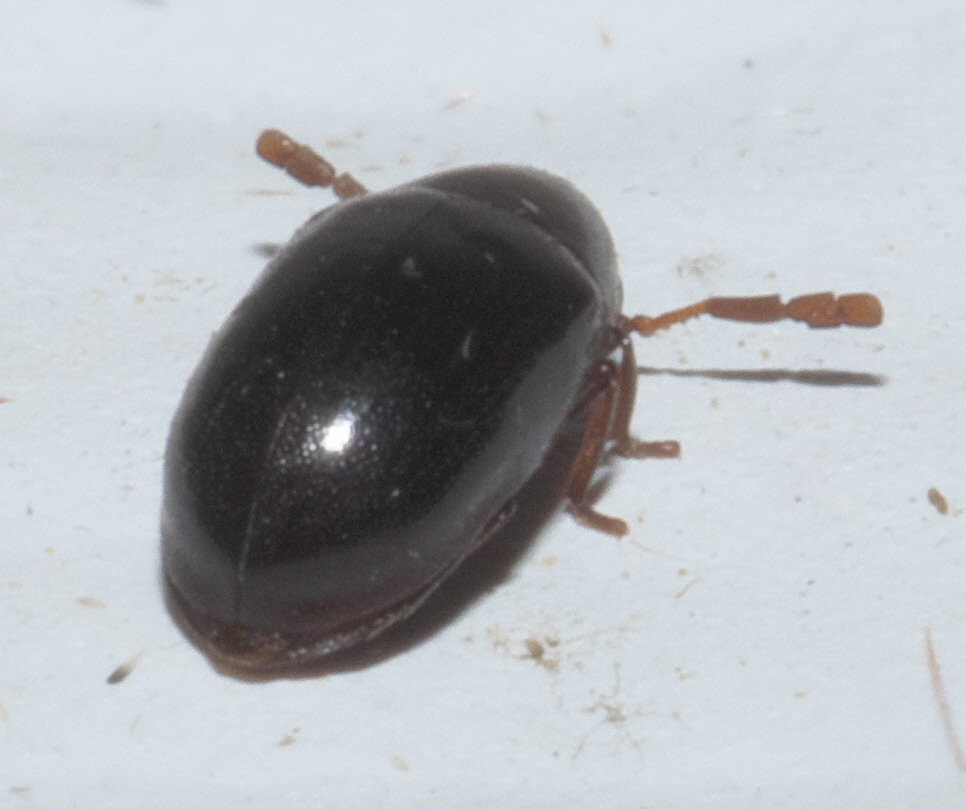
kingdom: Animalia
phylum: Arthropoda
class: Insecta
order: Coleoptera
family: Anobiidae
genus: Calymmaderus
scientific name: Calymmaderus nitidus
